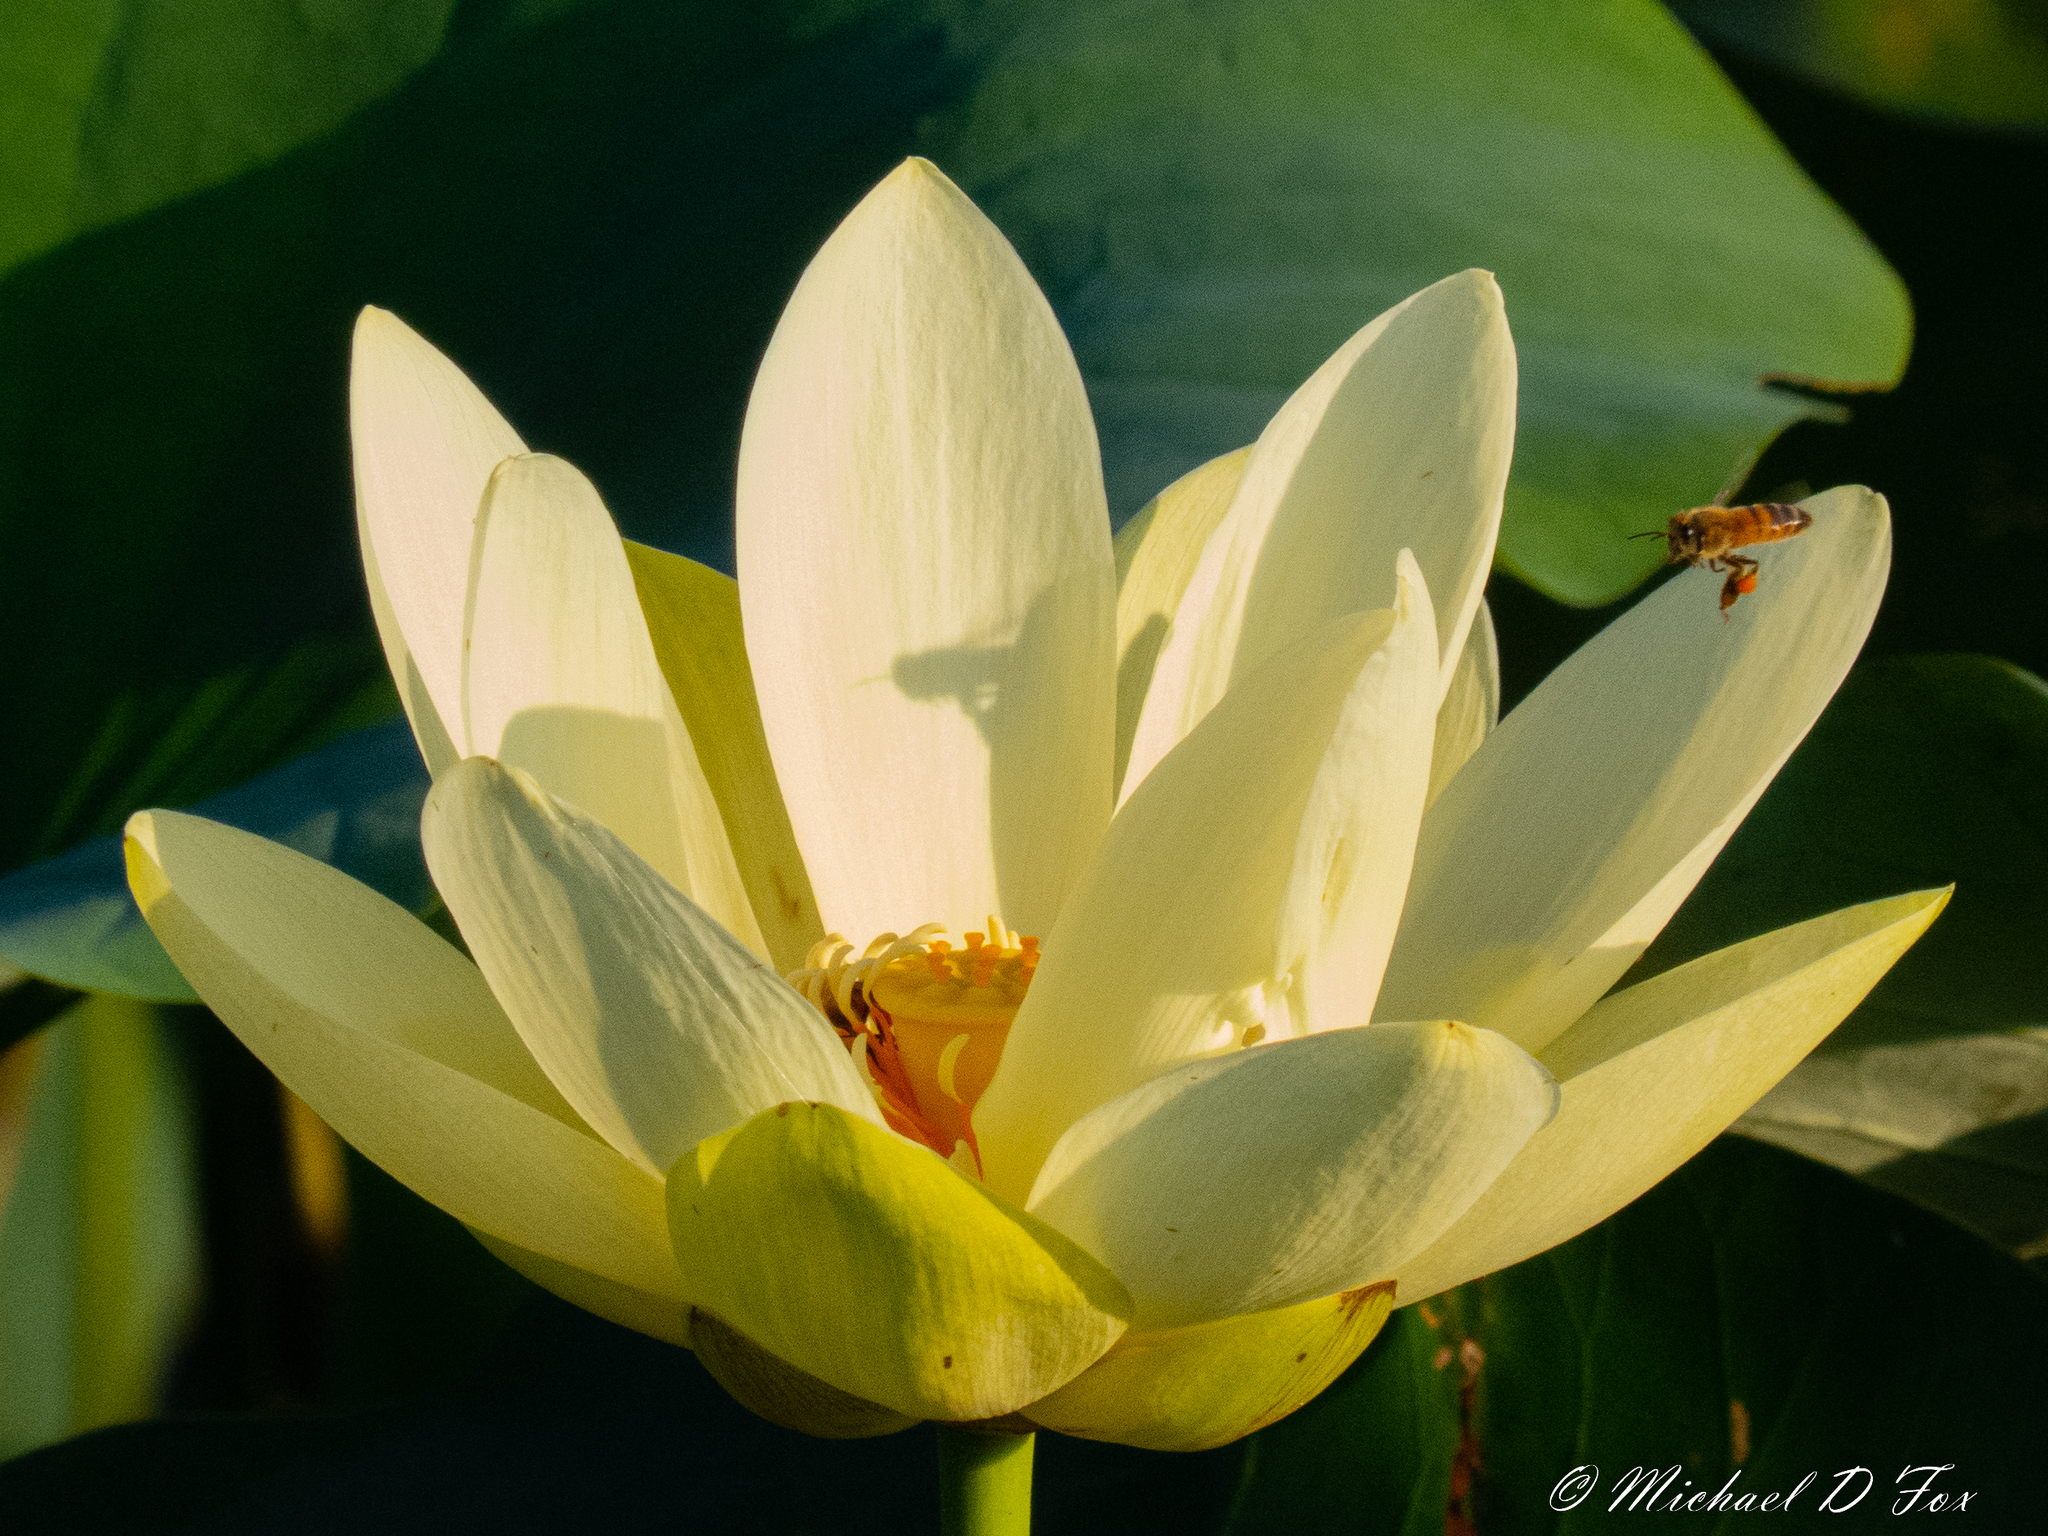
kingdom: Plantae
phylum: Tracheophyta
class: Magnoliopsida
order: Proteales
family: Nelumbonaceae
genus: Nelumbo
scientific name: Nelumbo lutea
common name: American lotus
